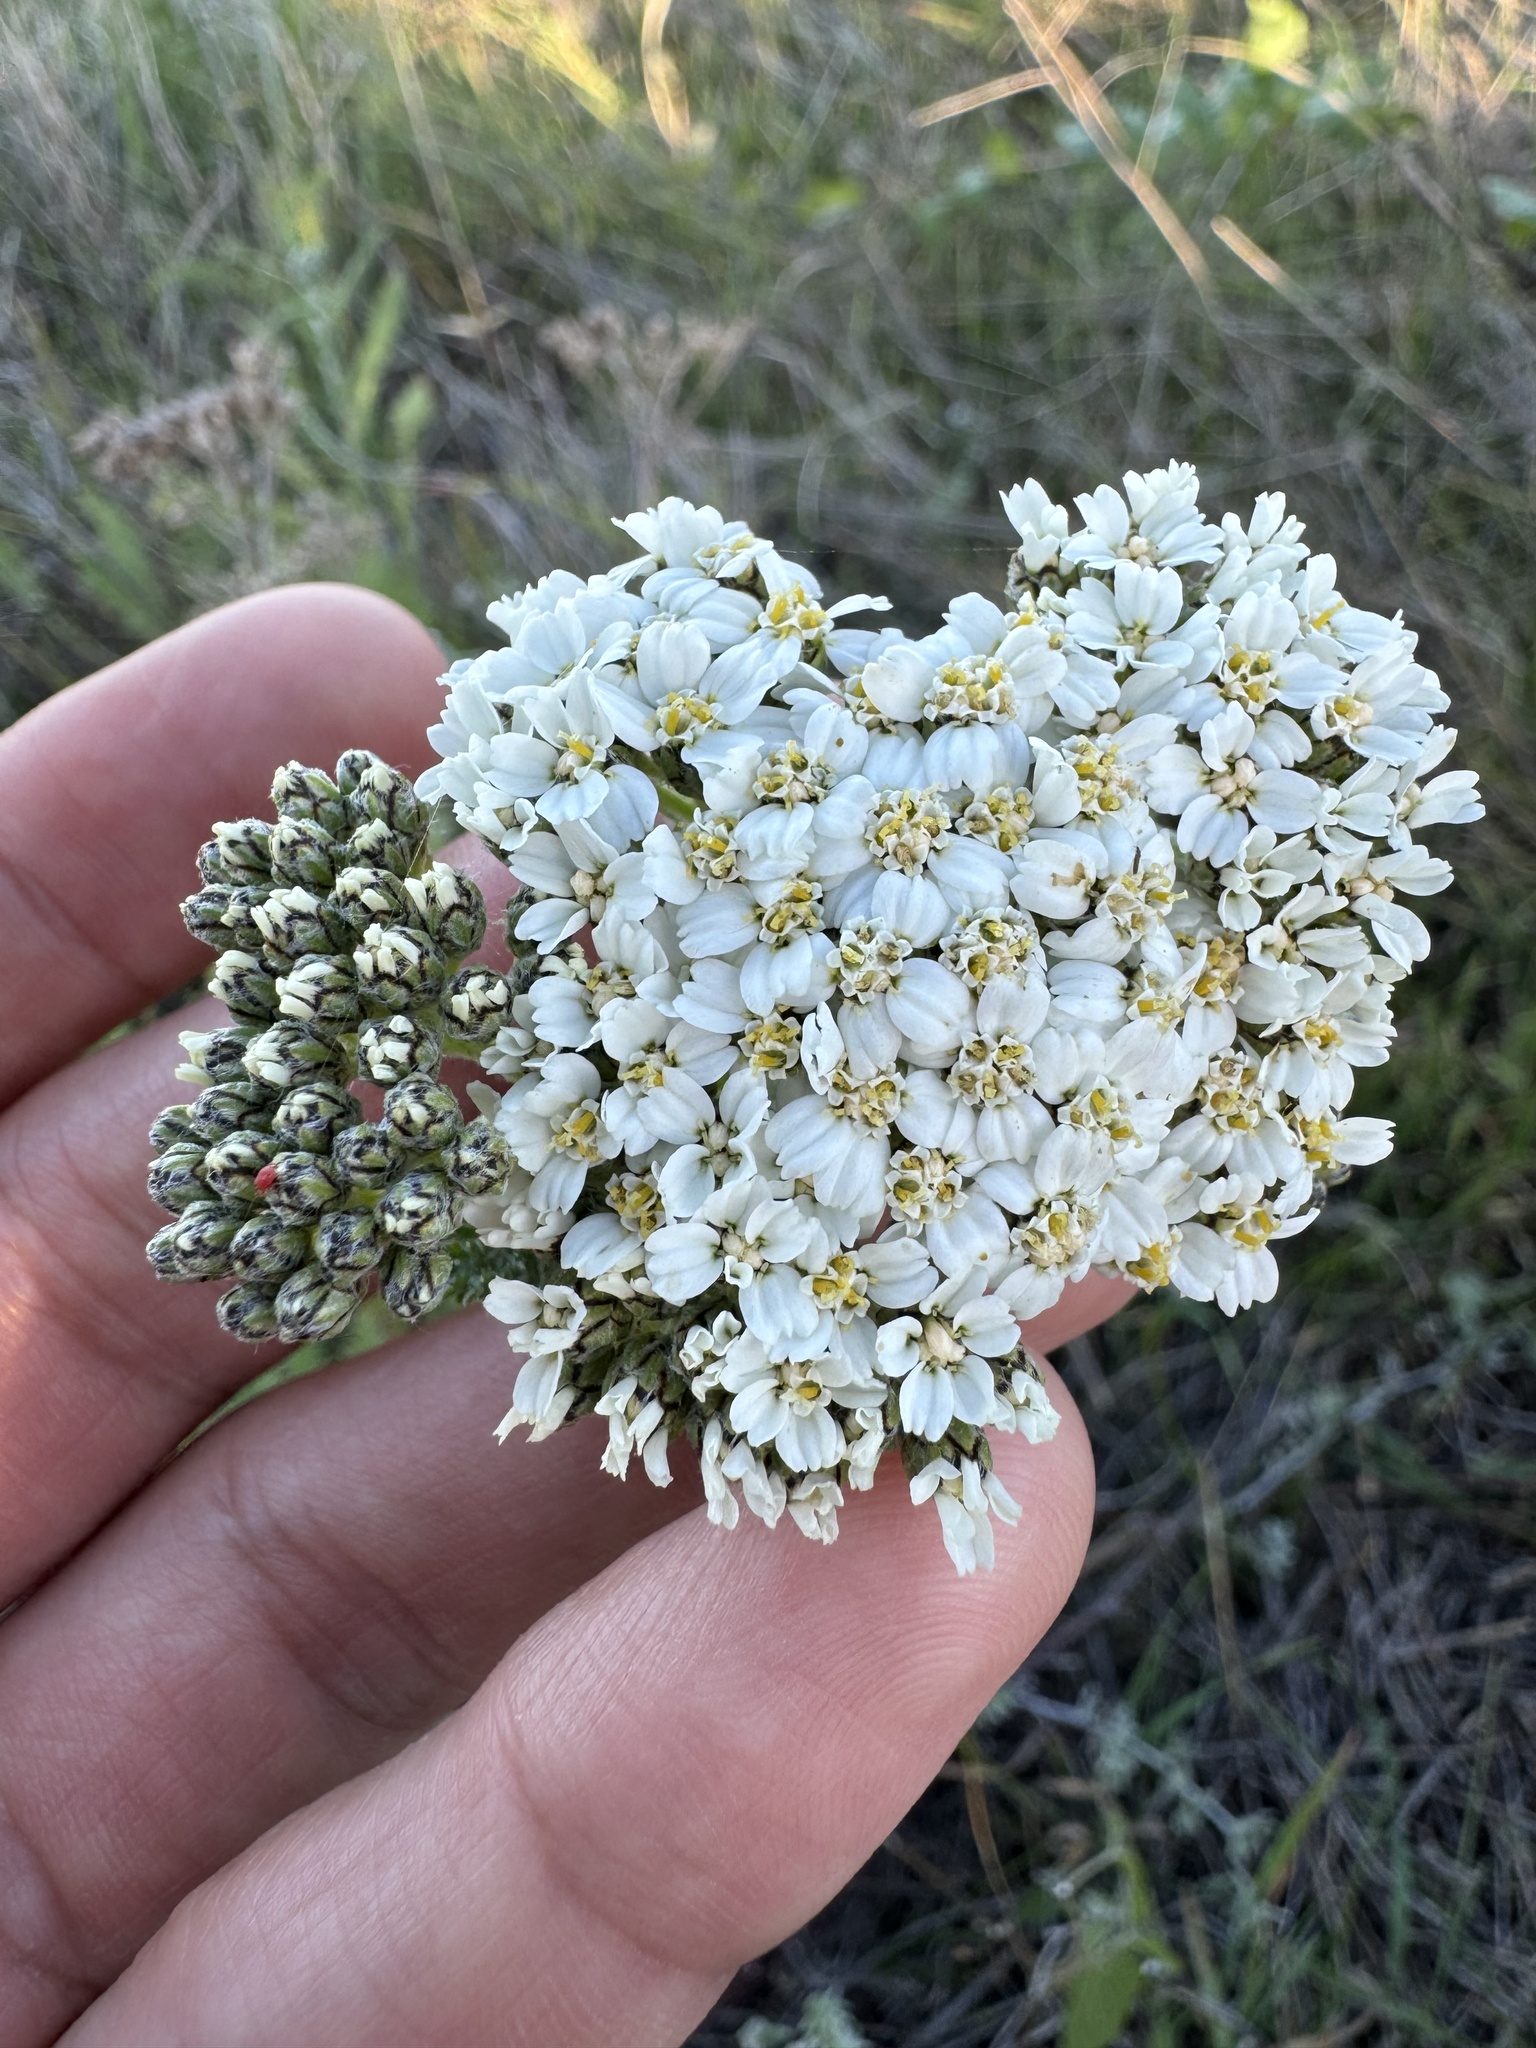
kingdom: Plantae
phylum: Tracheophyta
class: Magnoliopsida
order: Asterales
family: Asteraceae
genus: Achillea
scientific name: Achillea millefolium
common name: Yarrow
